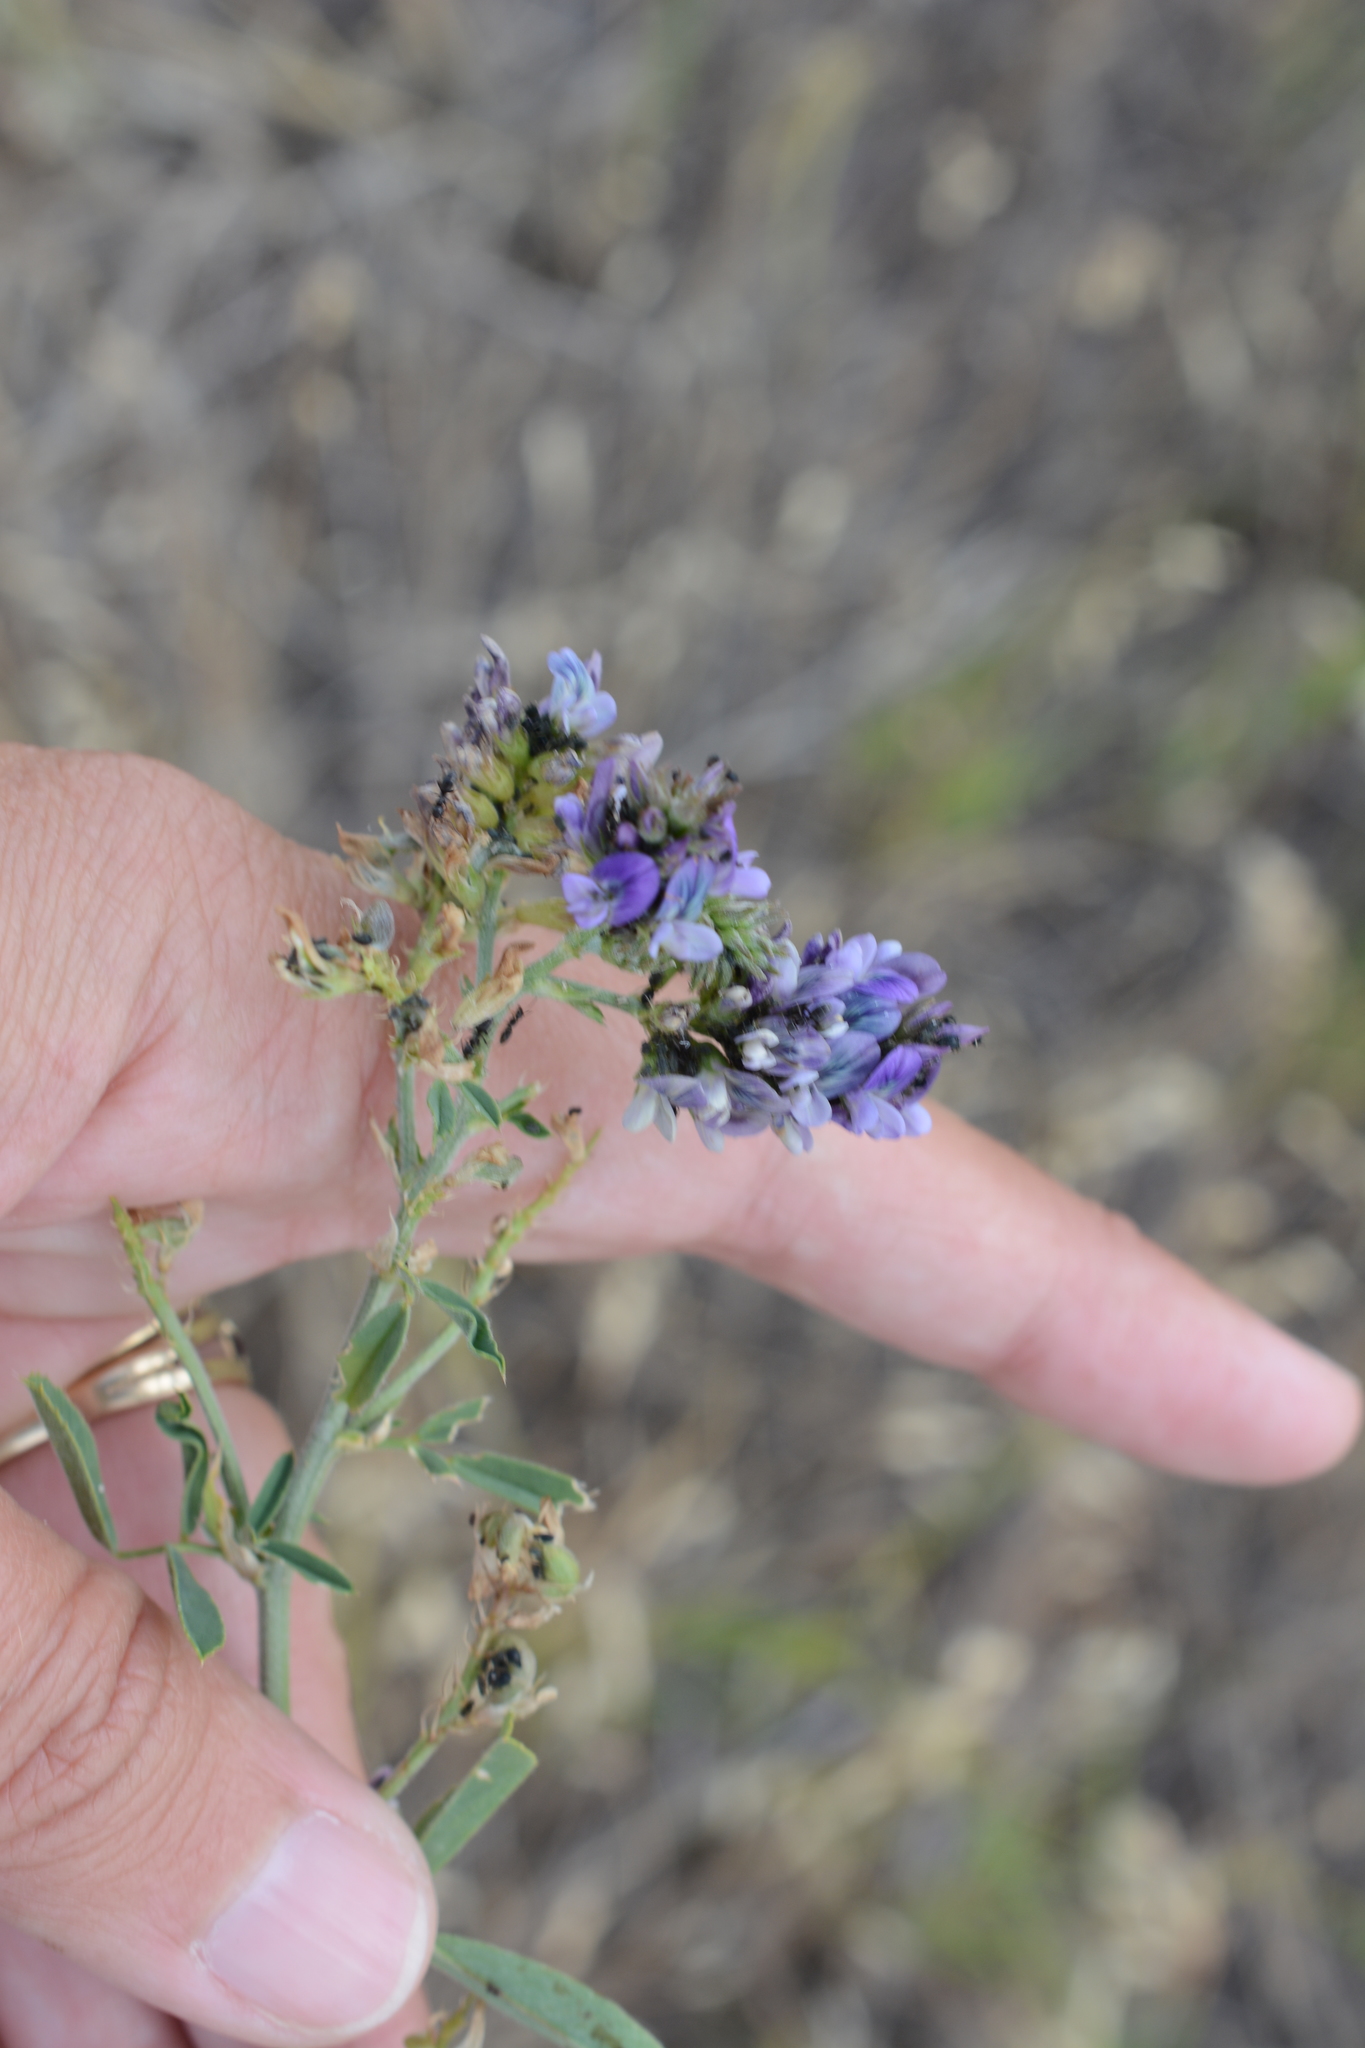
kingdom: Plantae
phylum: Tracheophyta
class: Magnoliopsida
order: Fabales
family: Fabaceae
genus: Medicago
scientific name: Medicago sativa
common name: Alfalfa
